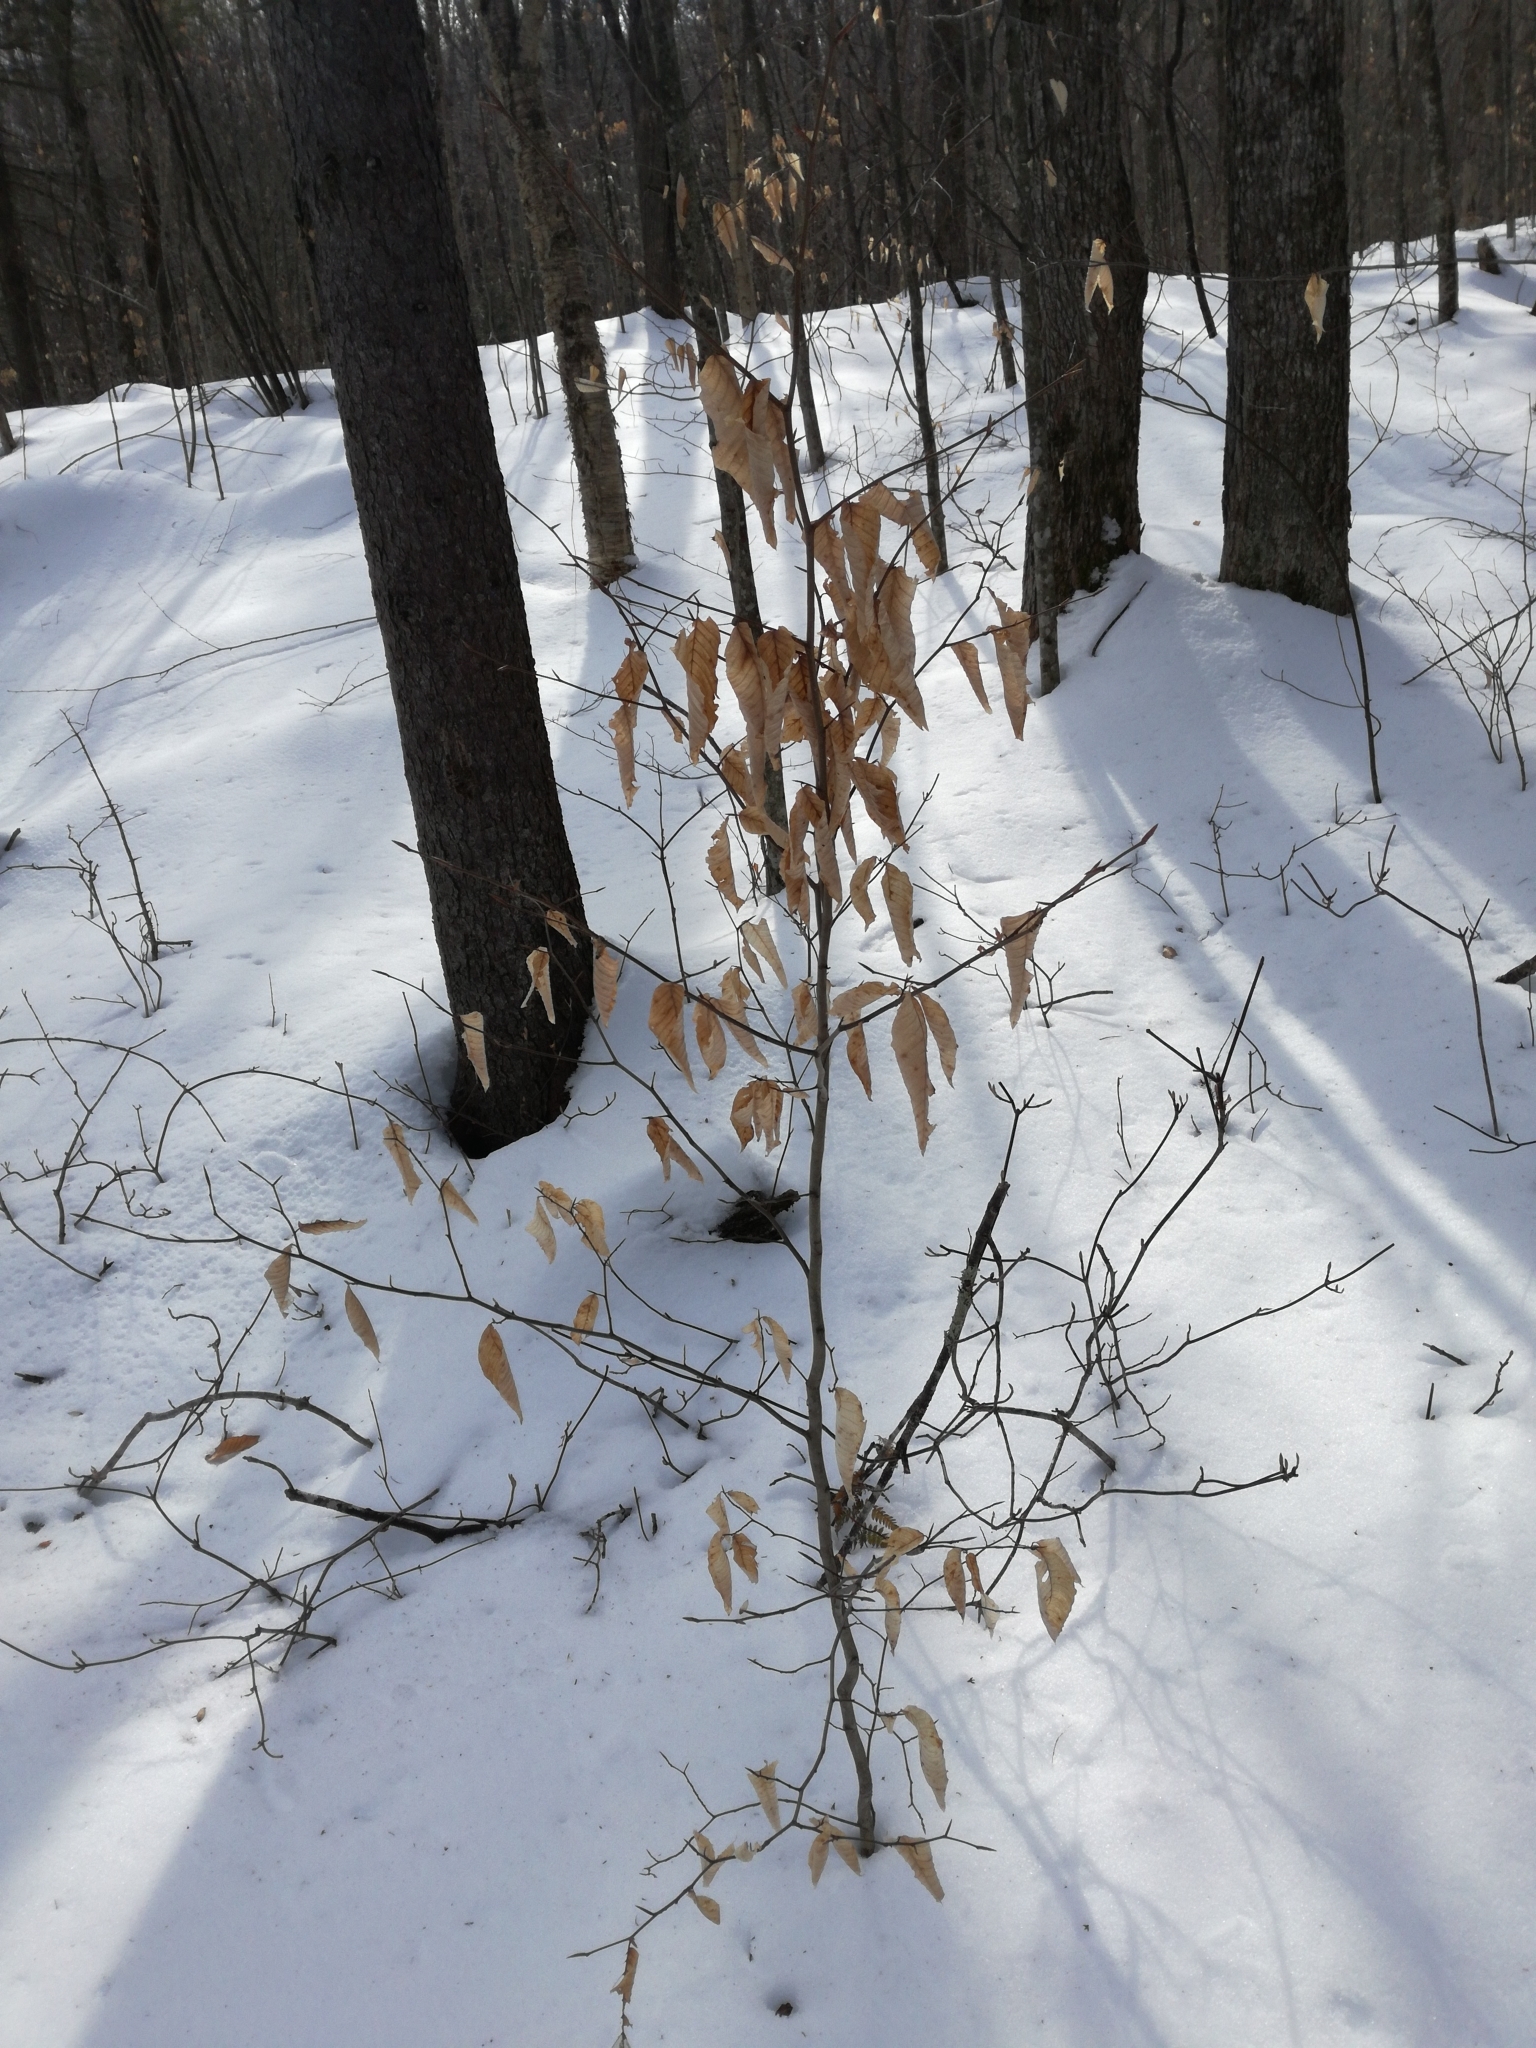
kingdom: Plantae
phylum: Tracheophyta
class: Magnoliopsida
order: Fagales
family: Fagaceae
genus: Fagus
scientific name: Fagus grandifolia
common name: American beech
